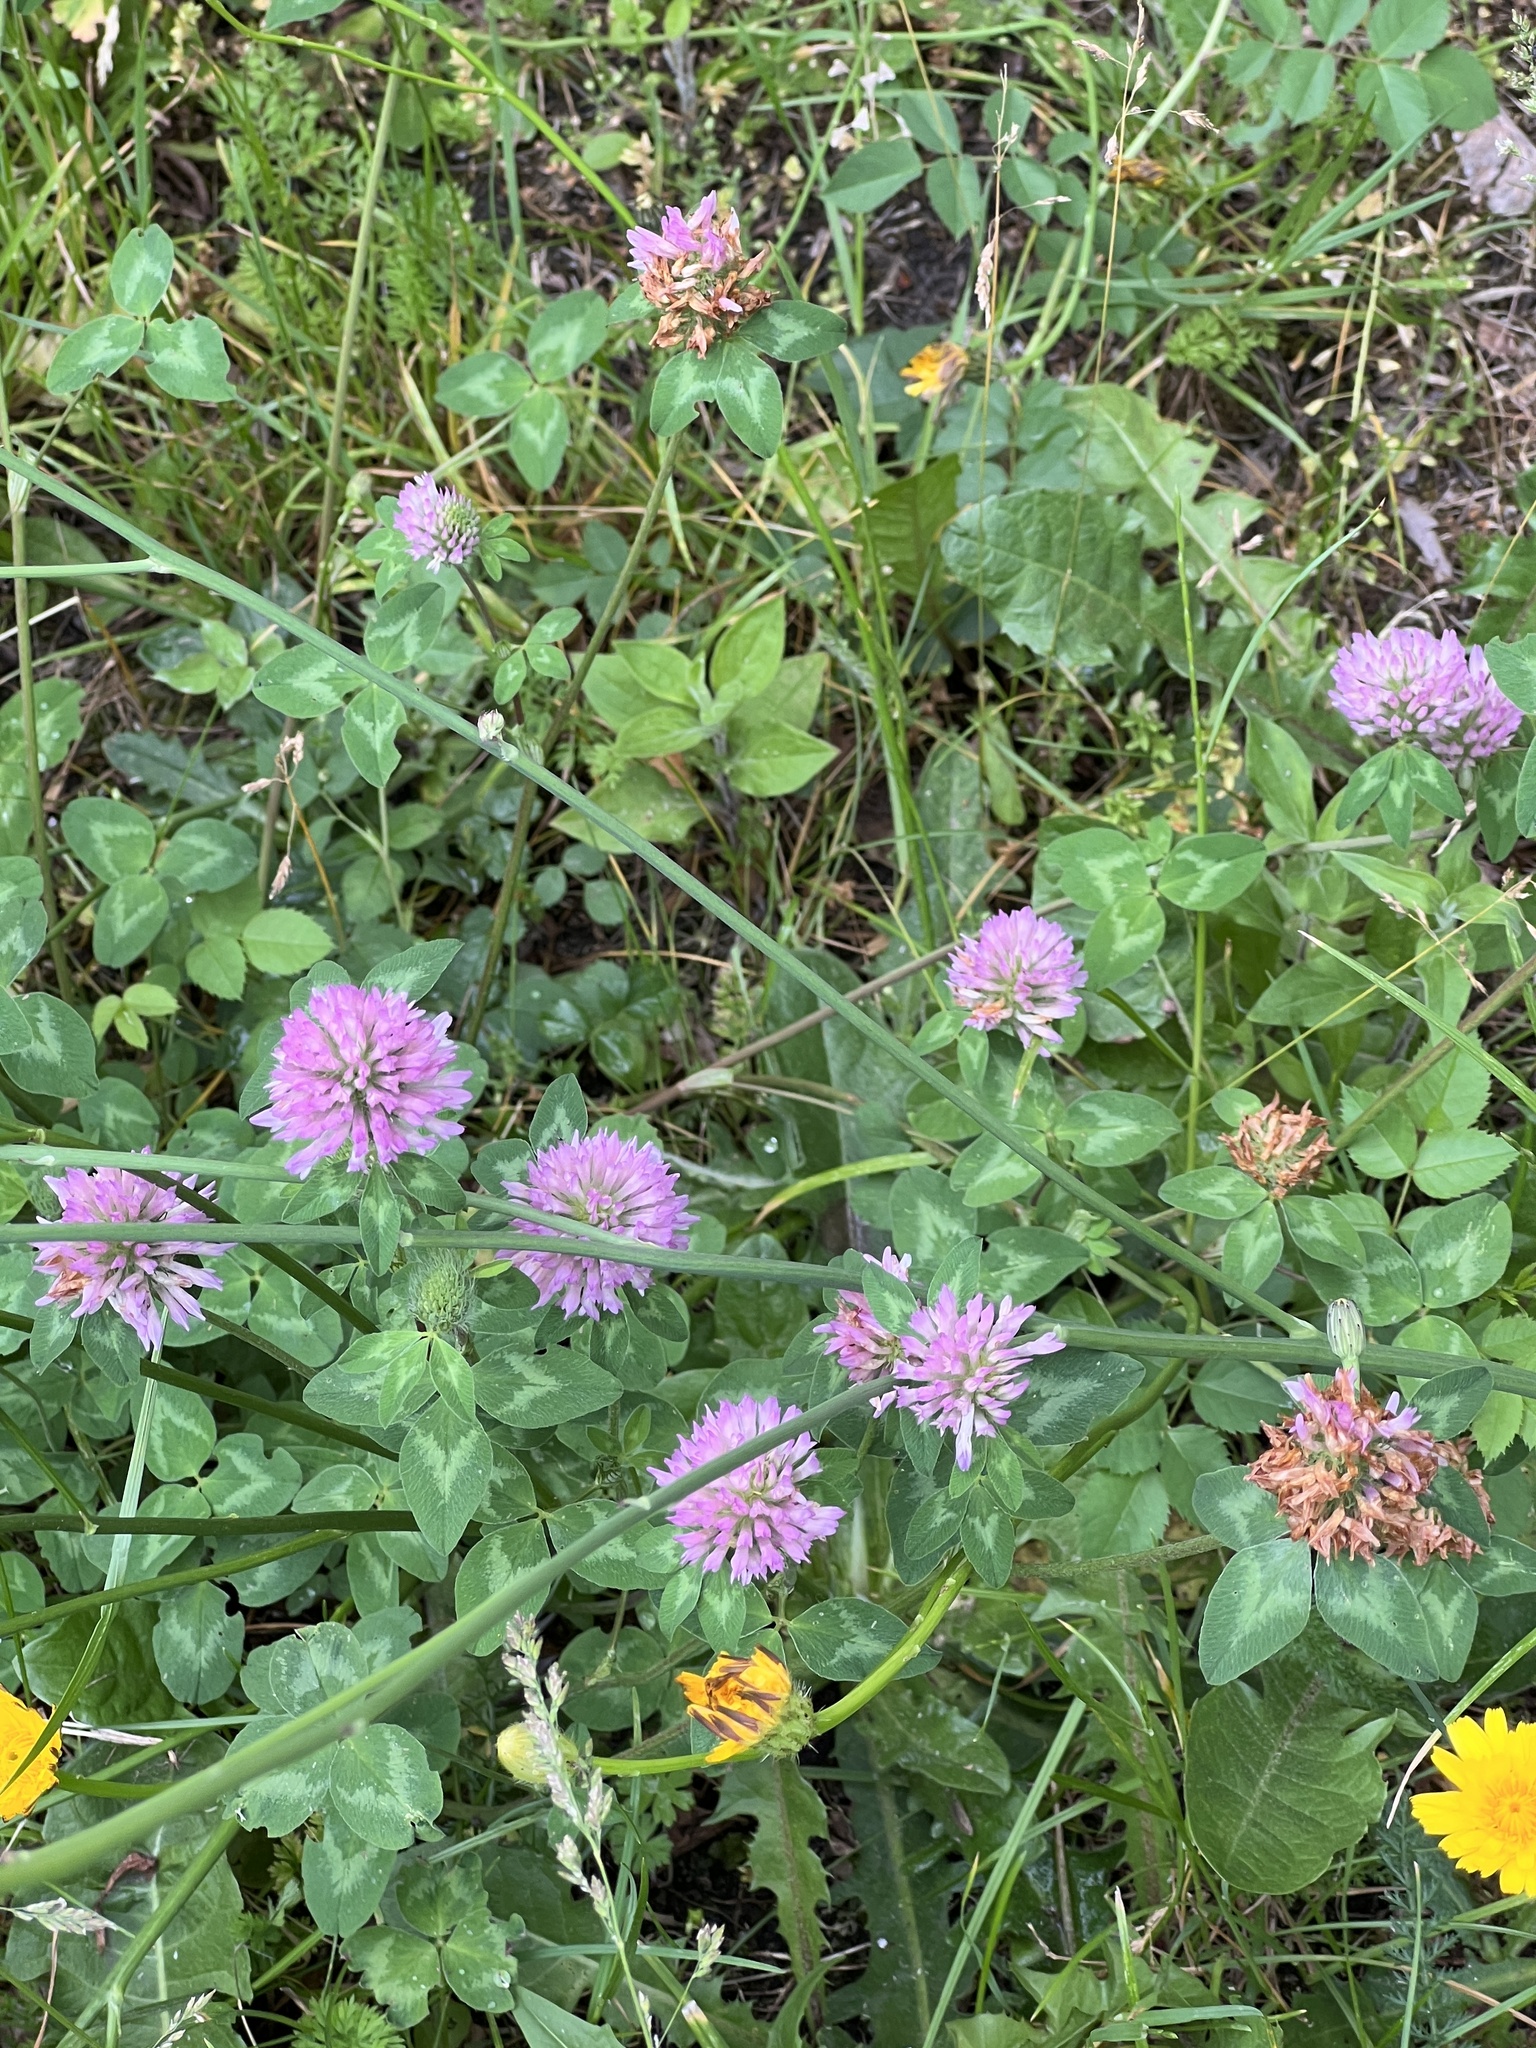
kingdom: Plantae
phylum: Tracheophyta
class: Magnoliopsida
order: Fabales
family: Fabaceae
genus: Trifolium
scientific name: Trifolium pratense
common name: Red clover
